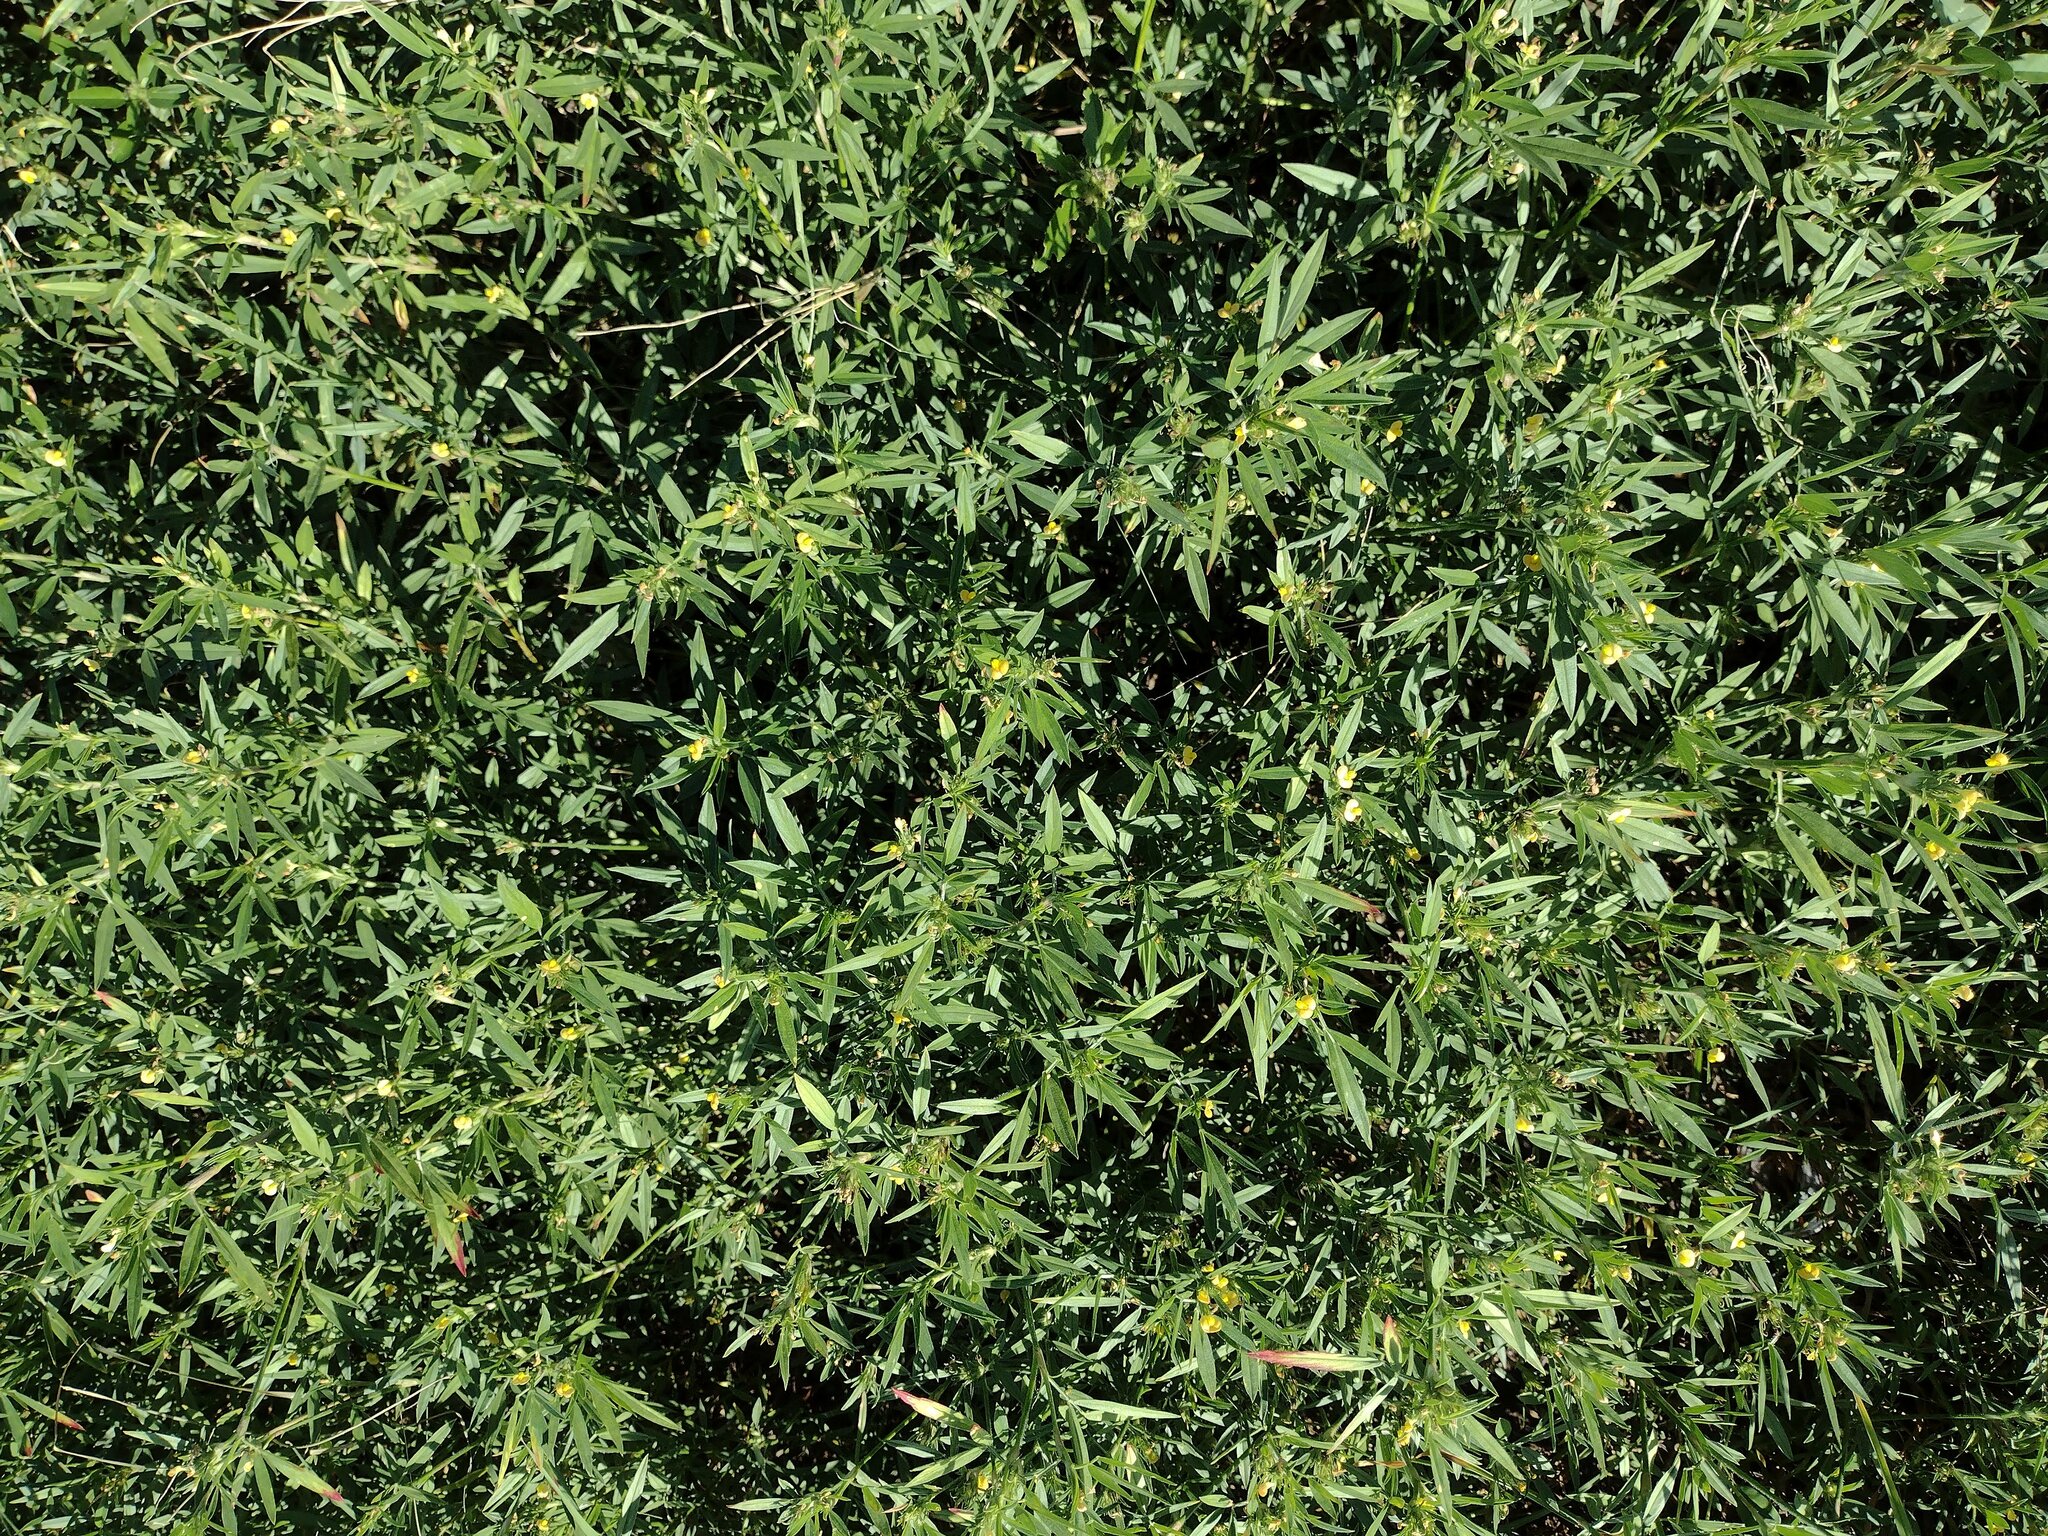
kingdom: Plantae
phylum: Tracheophyta
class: Magnoliopsida
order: Fabales
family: Fabaceae
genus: Stylosanthes
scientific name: Stylosanthes scabra
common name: Pencilflower
